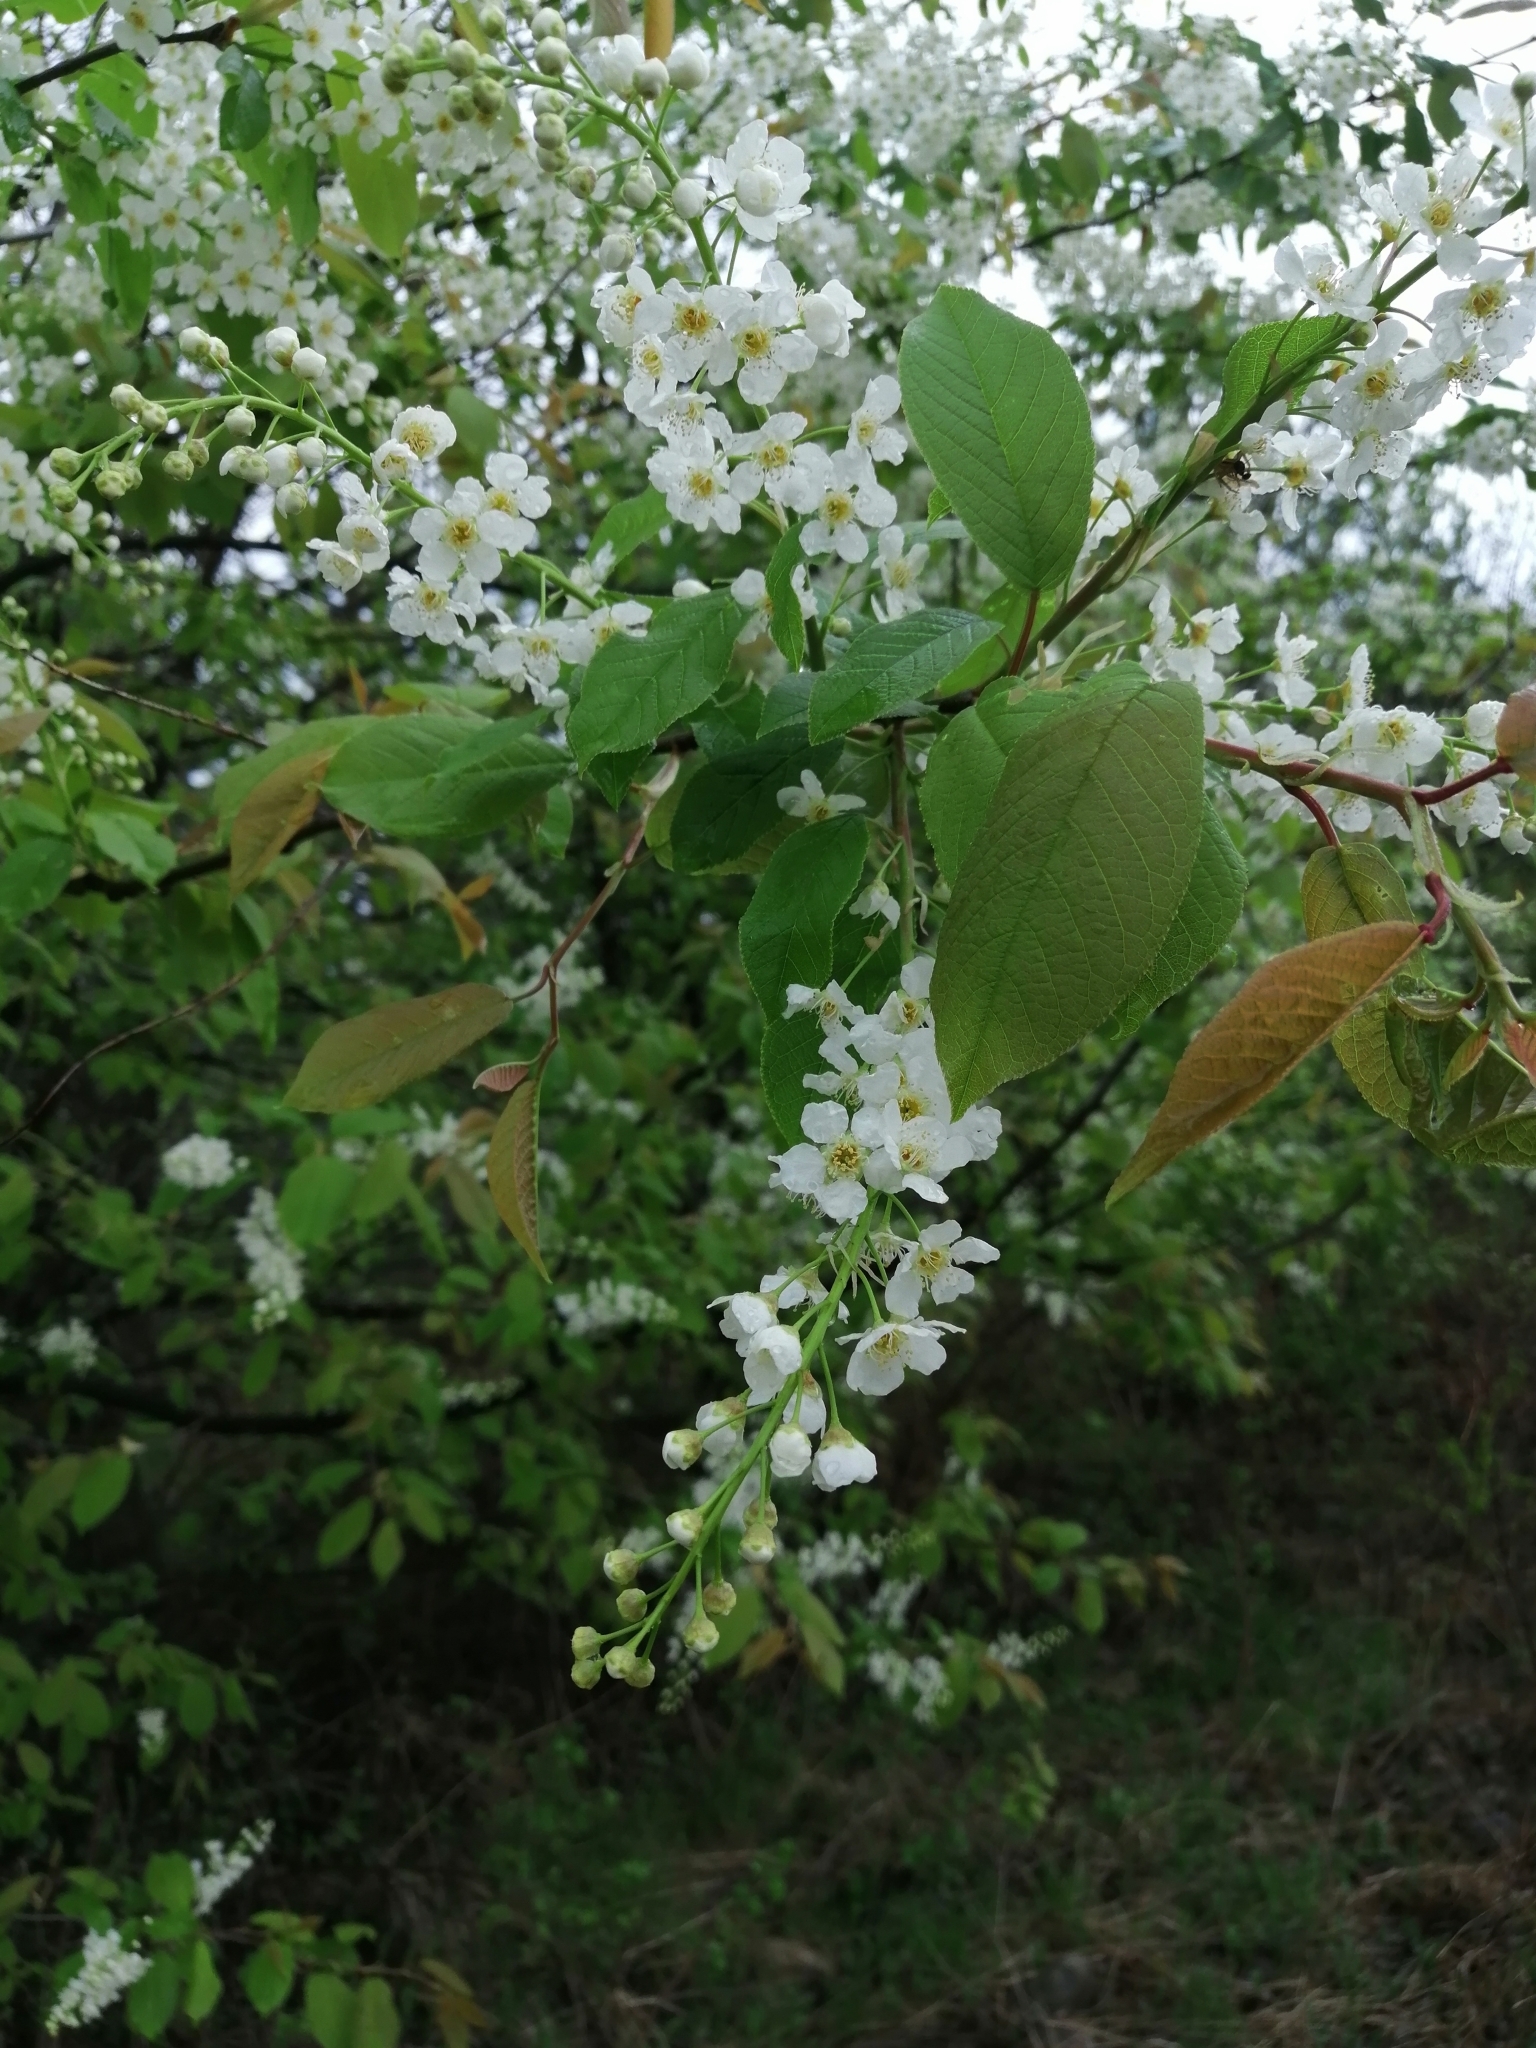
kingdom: Plantae
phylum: Tracheophyta
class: Magnoliopsida
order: Rosales
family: Rosaceae
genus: Prunus
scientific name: Prunus padus
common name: Bird cherry
